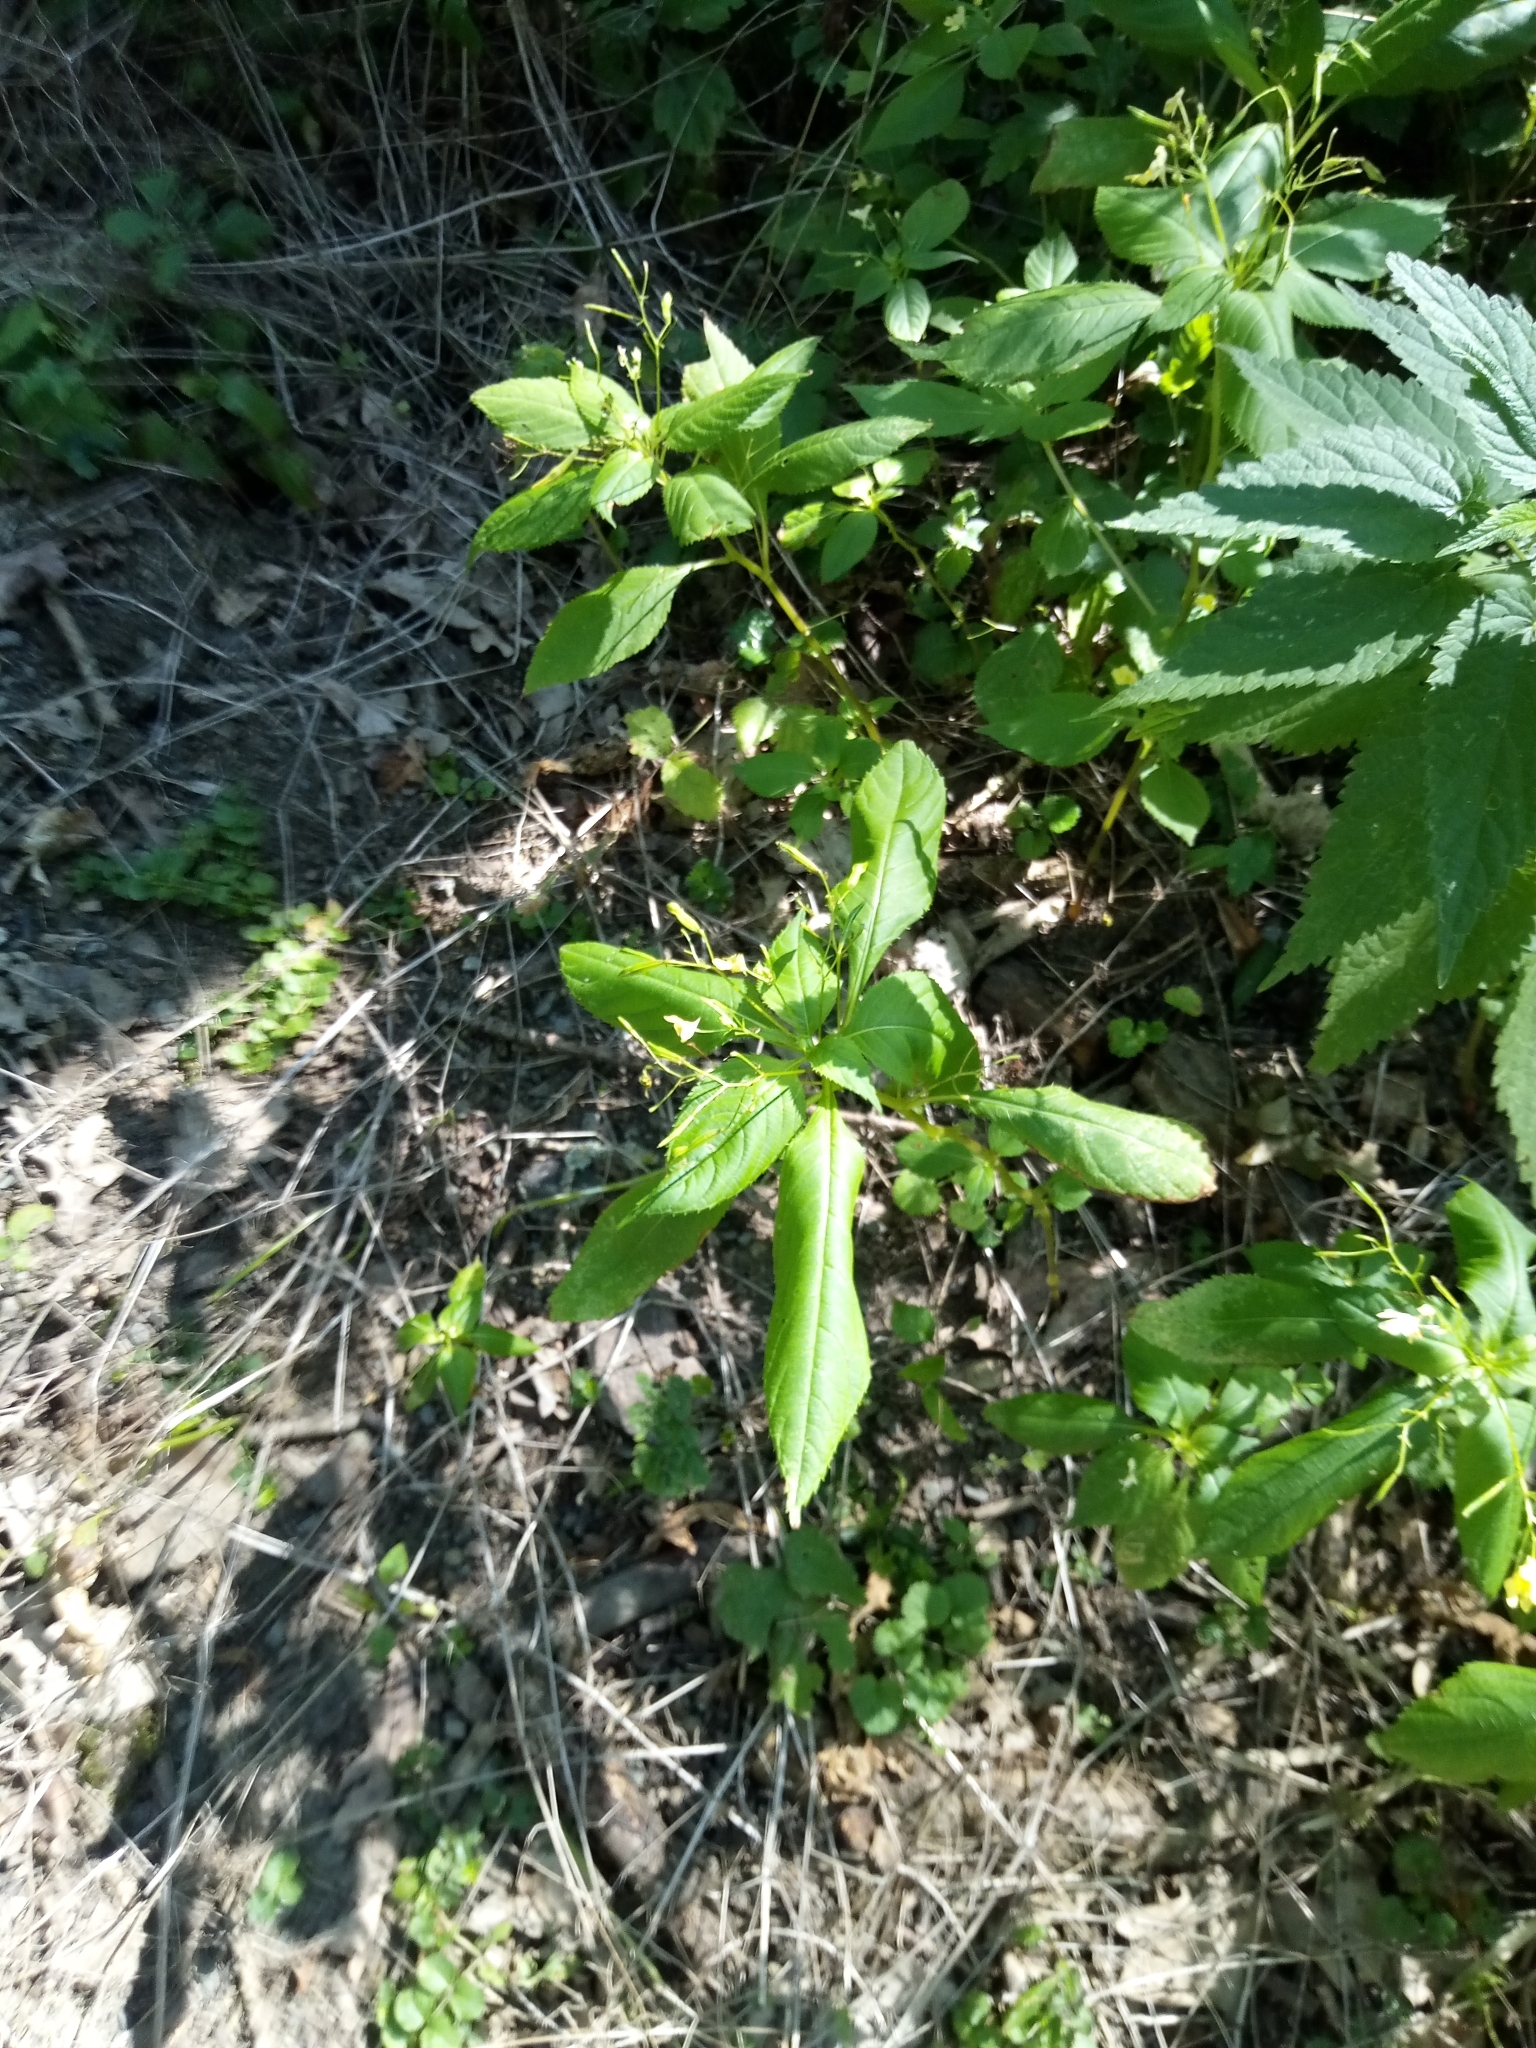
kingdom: Plantae
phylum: Tracheophyta
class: Magnoliopsida
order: Ericales
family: Balsaminaceae
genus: Impatiens
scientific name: Impatiens parviflora
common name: Small balsam
